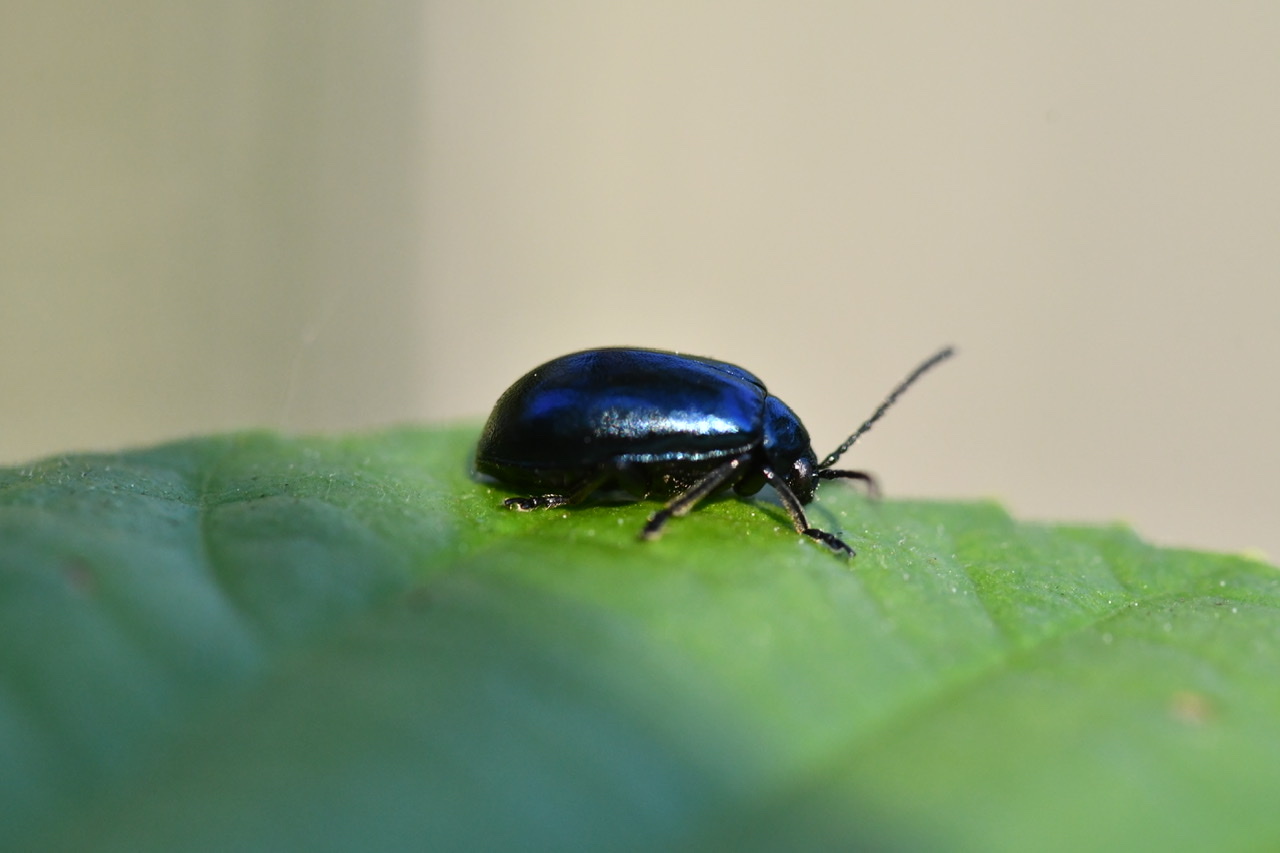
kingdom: Animalia
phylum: Arthropoda
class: Insecta
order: Coleoptera
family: Chrysomelidae
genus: Agelastica
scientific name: Agelastica alni
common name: Alder leaf beetle
